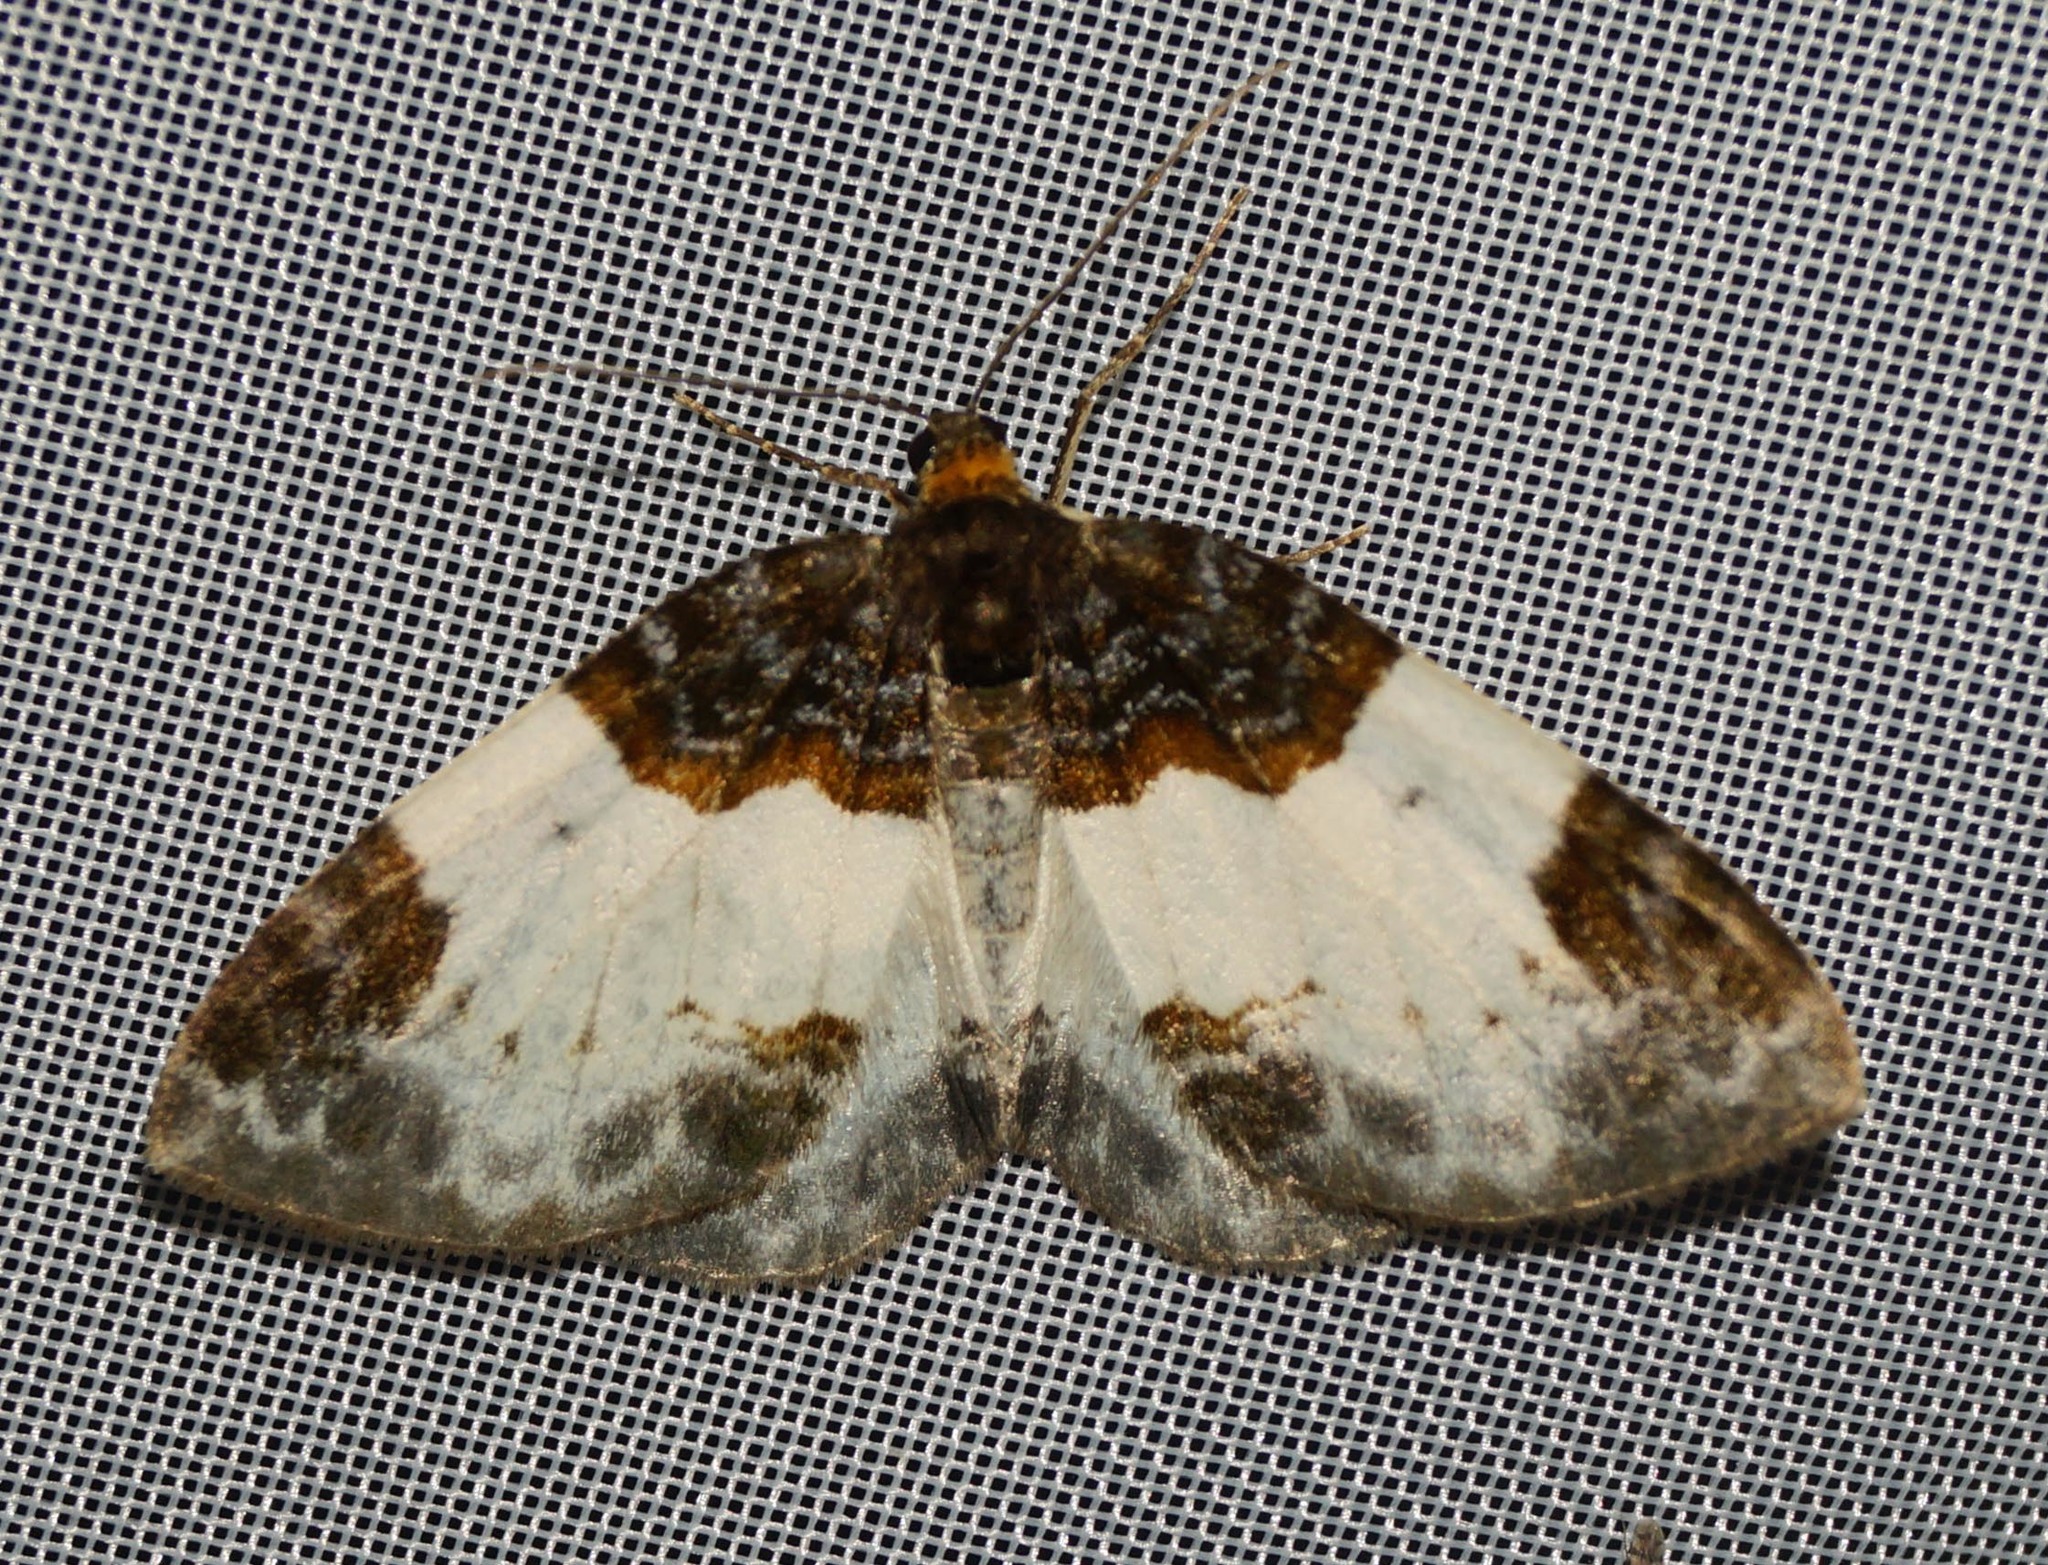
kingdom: Animalia
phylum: Arthropoda
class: Insecta
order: Lepidoptera
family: Geometridae
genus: Mesoleuca
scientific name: Mesoleuca albicillata
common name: Beautiful carpet
